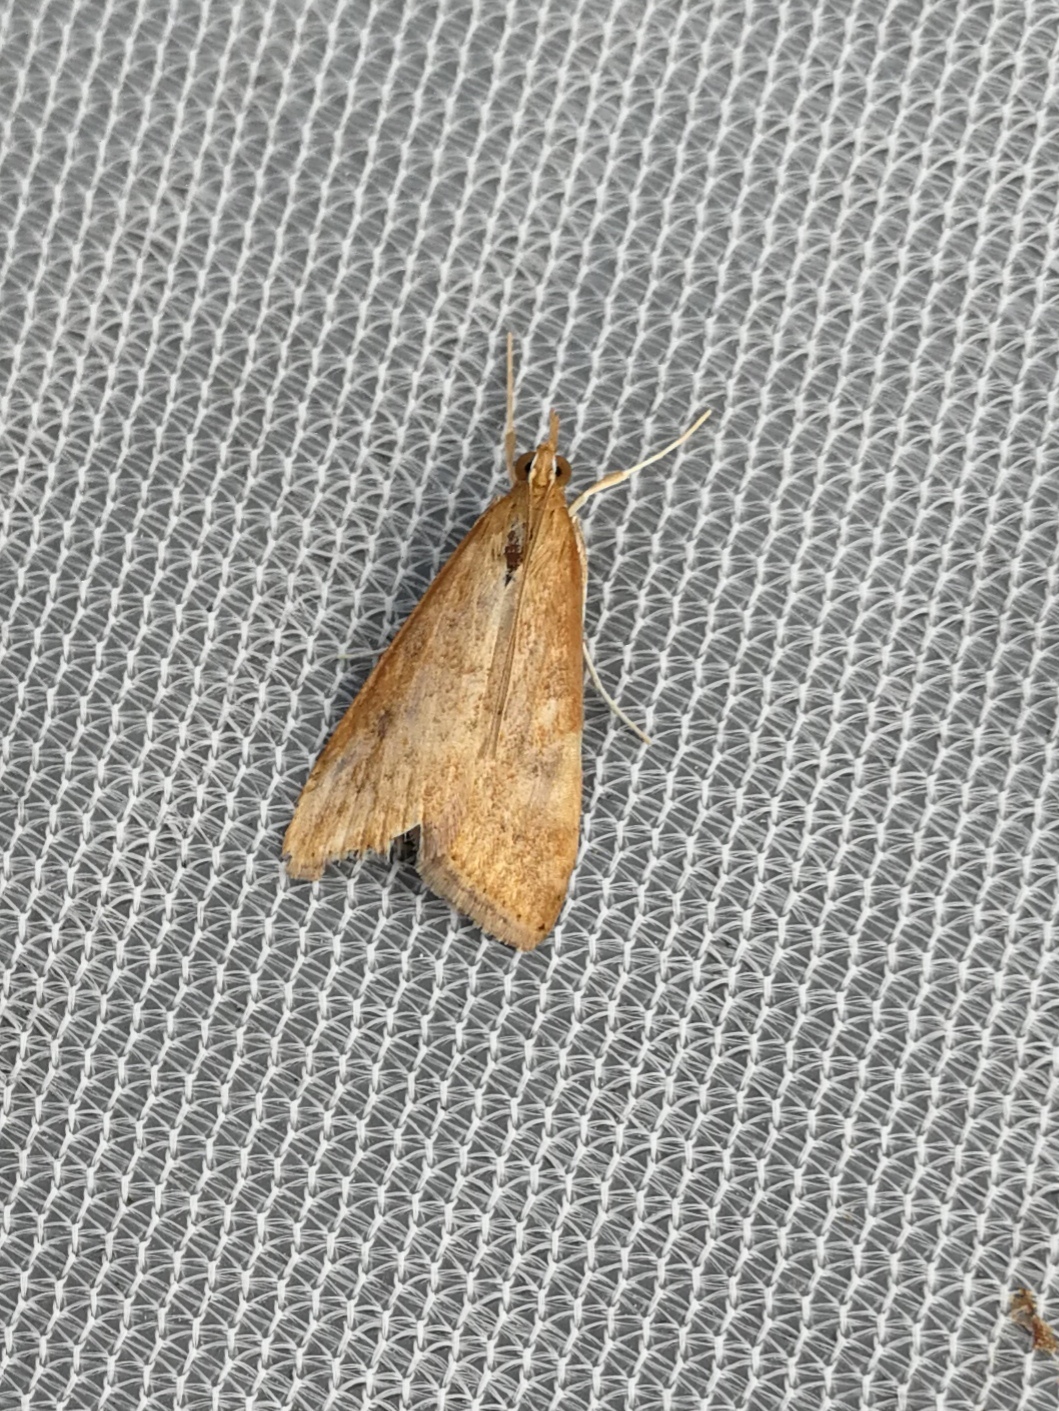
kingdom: Animalia
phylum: Arthropoda
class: Insecta
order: Lepidoptera
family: Crambidae
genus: Udea
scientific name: Udea ferrugalis
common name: Rusty dot
